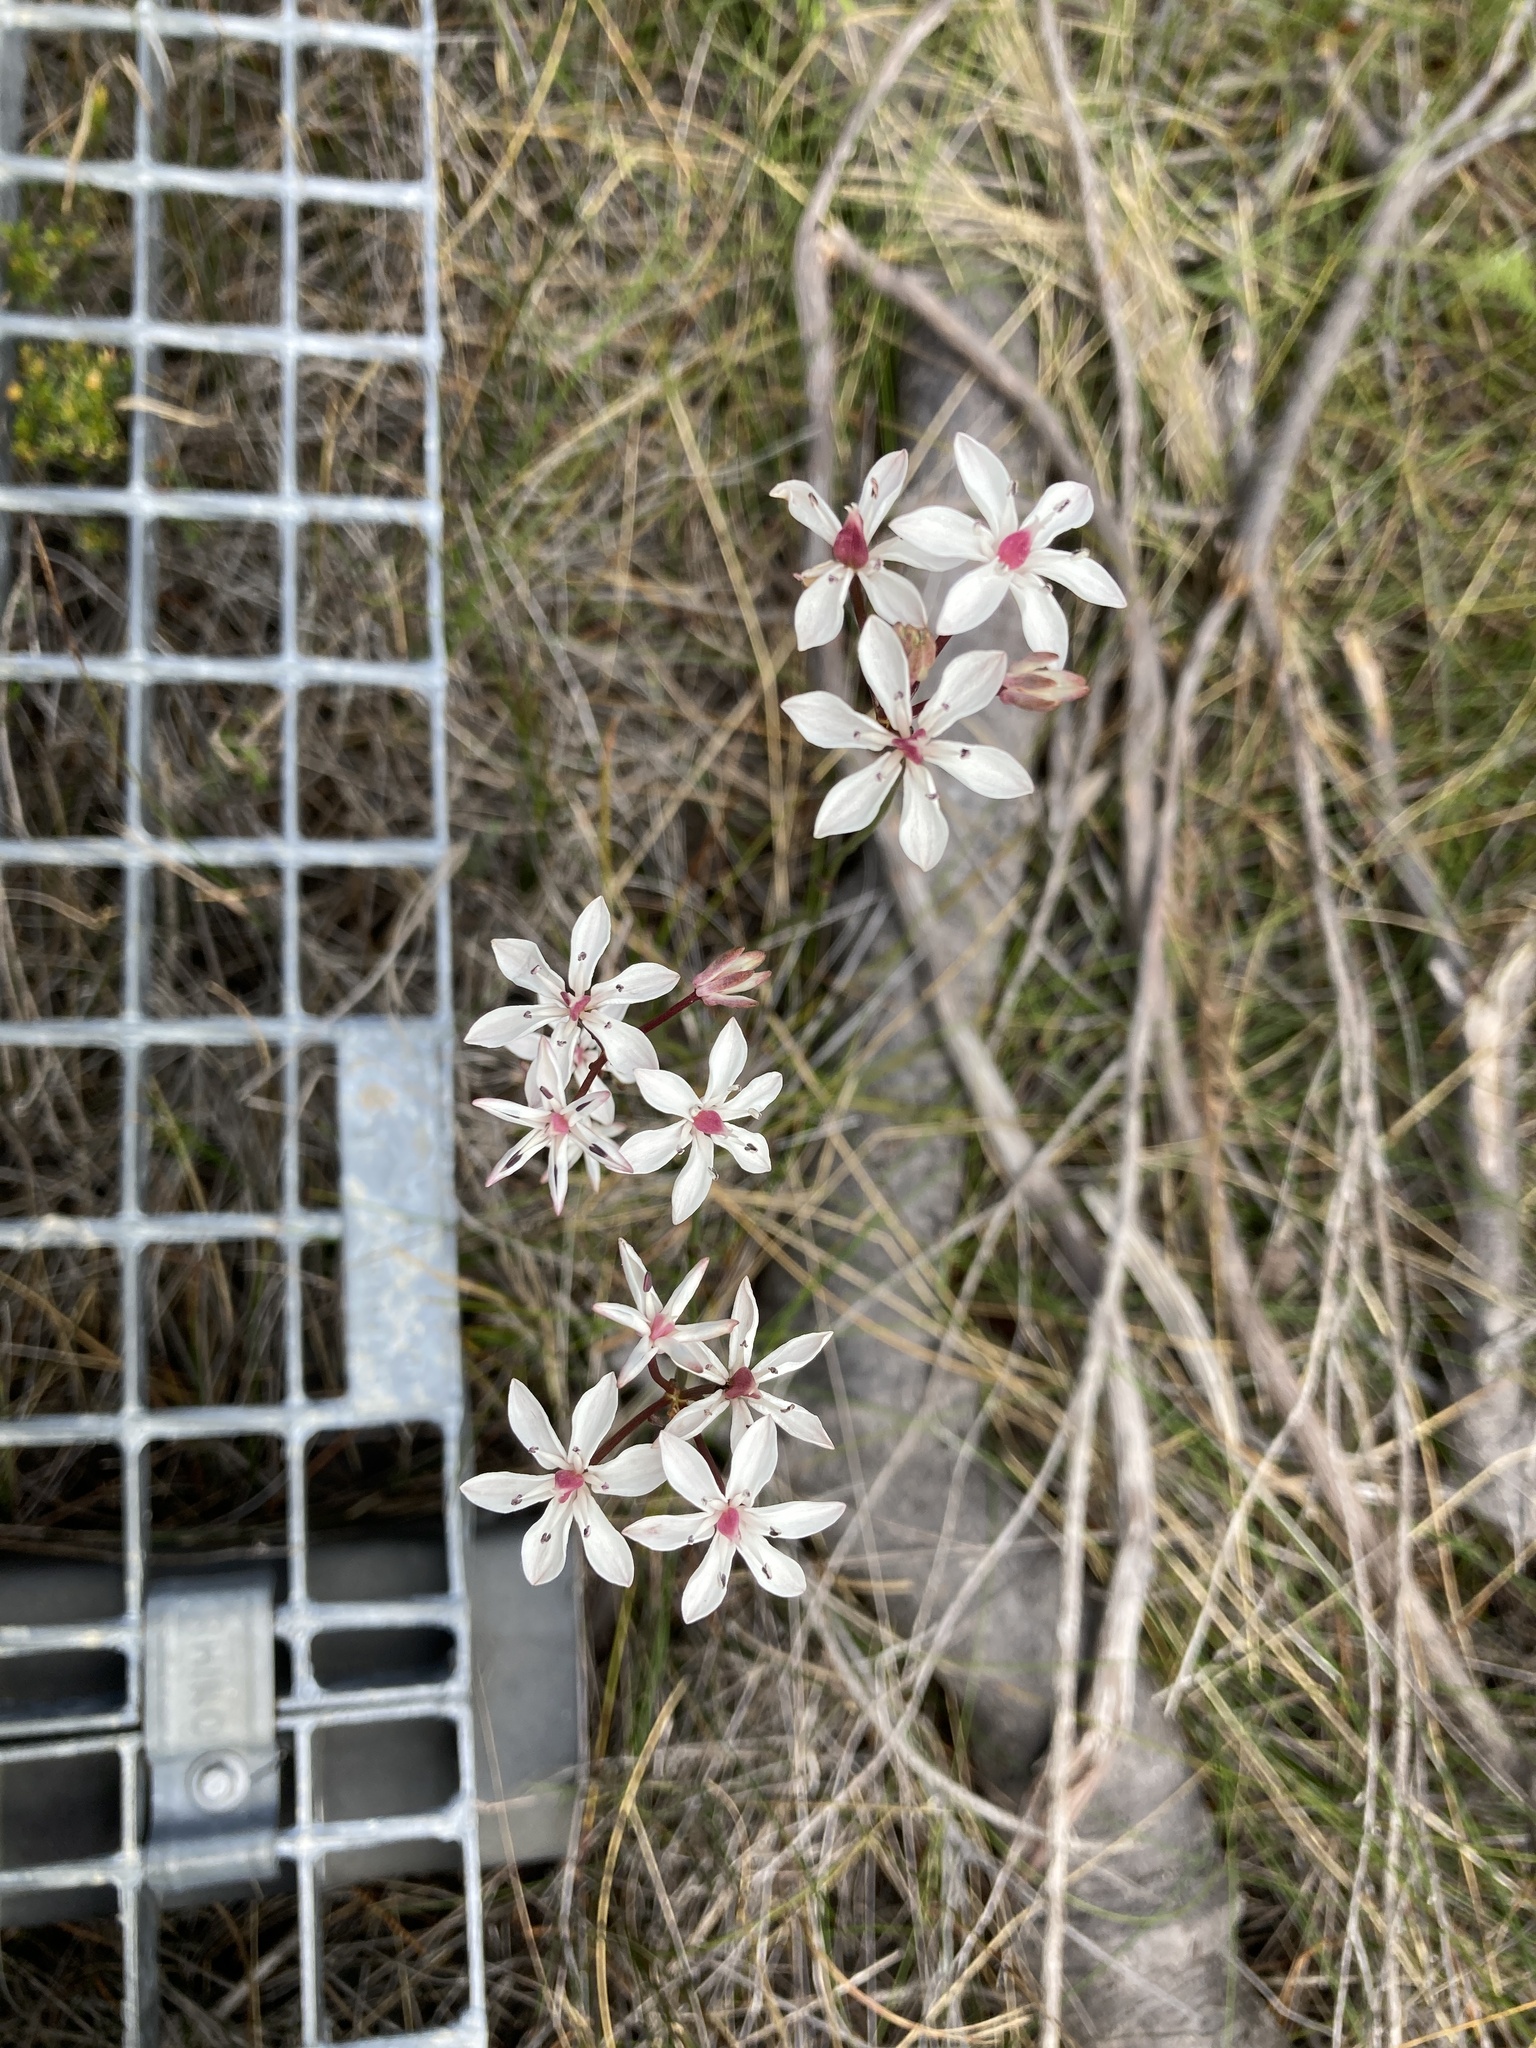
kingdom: Plantae
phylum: Tracheophyta
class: Liliopsida
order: Liliales
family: Colchicaceae
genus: Burchardia
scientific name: Burchardia umbellata
